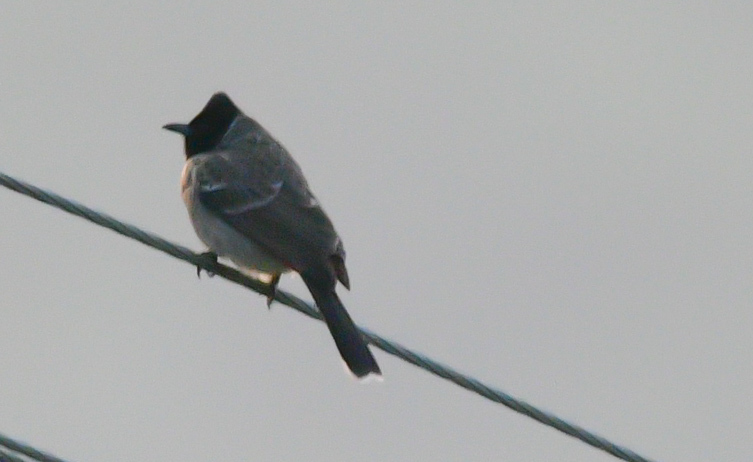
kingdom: Animalia
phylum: Chordata
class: Aves
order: Passeriformes
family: Pycnonotidae
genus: Pycnonotus
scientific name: Pycnonotus cafer
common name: Red-vented bulbul
